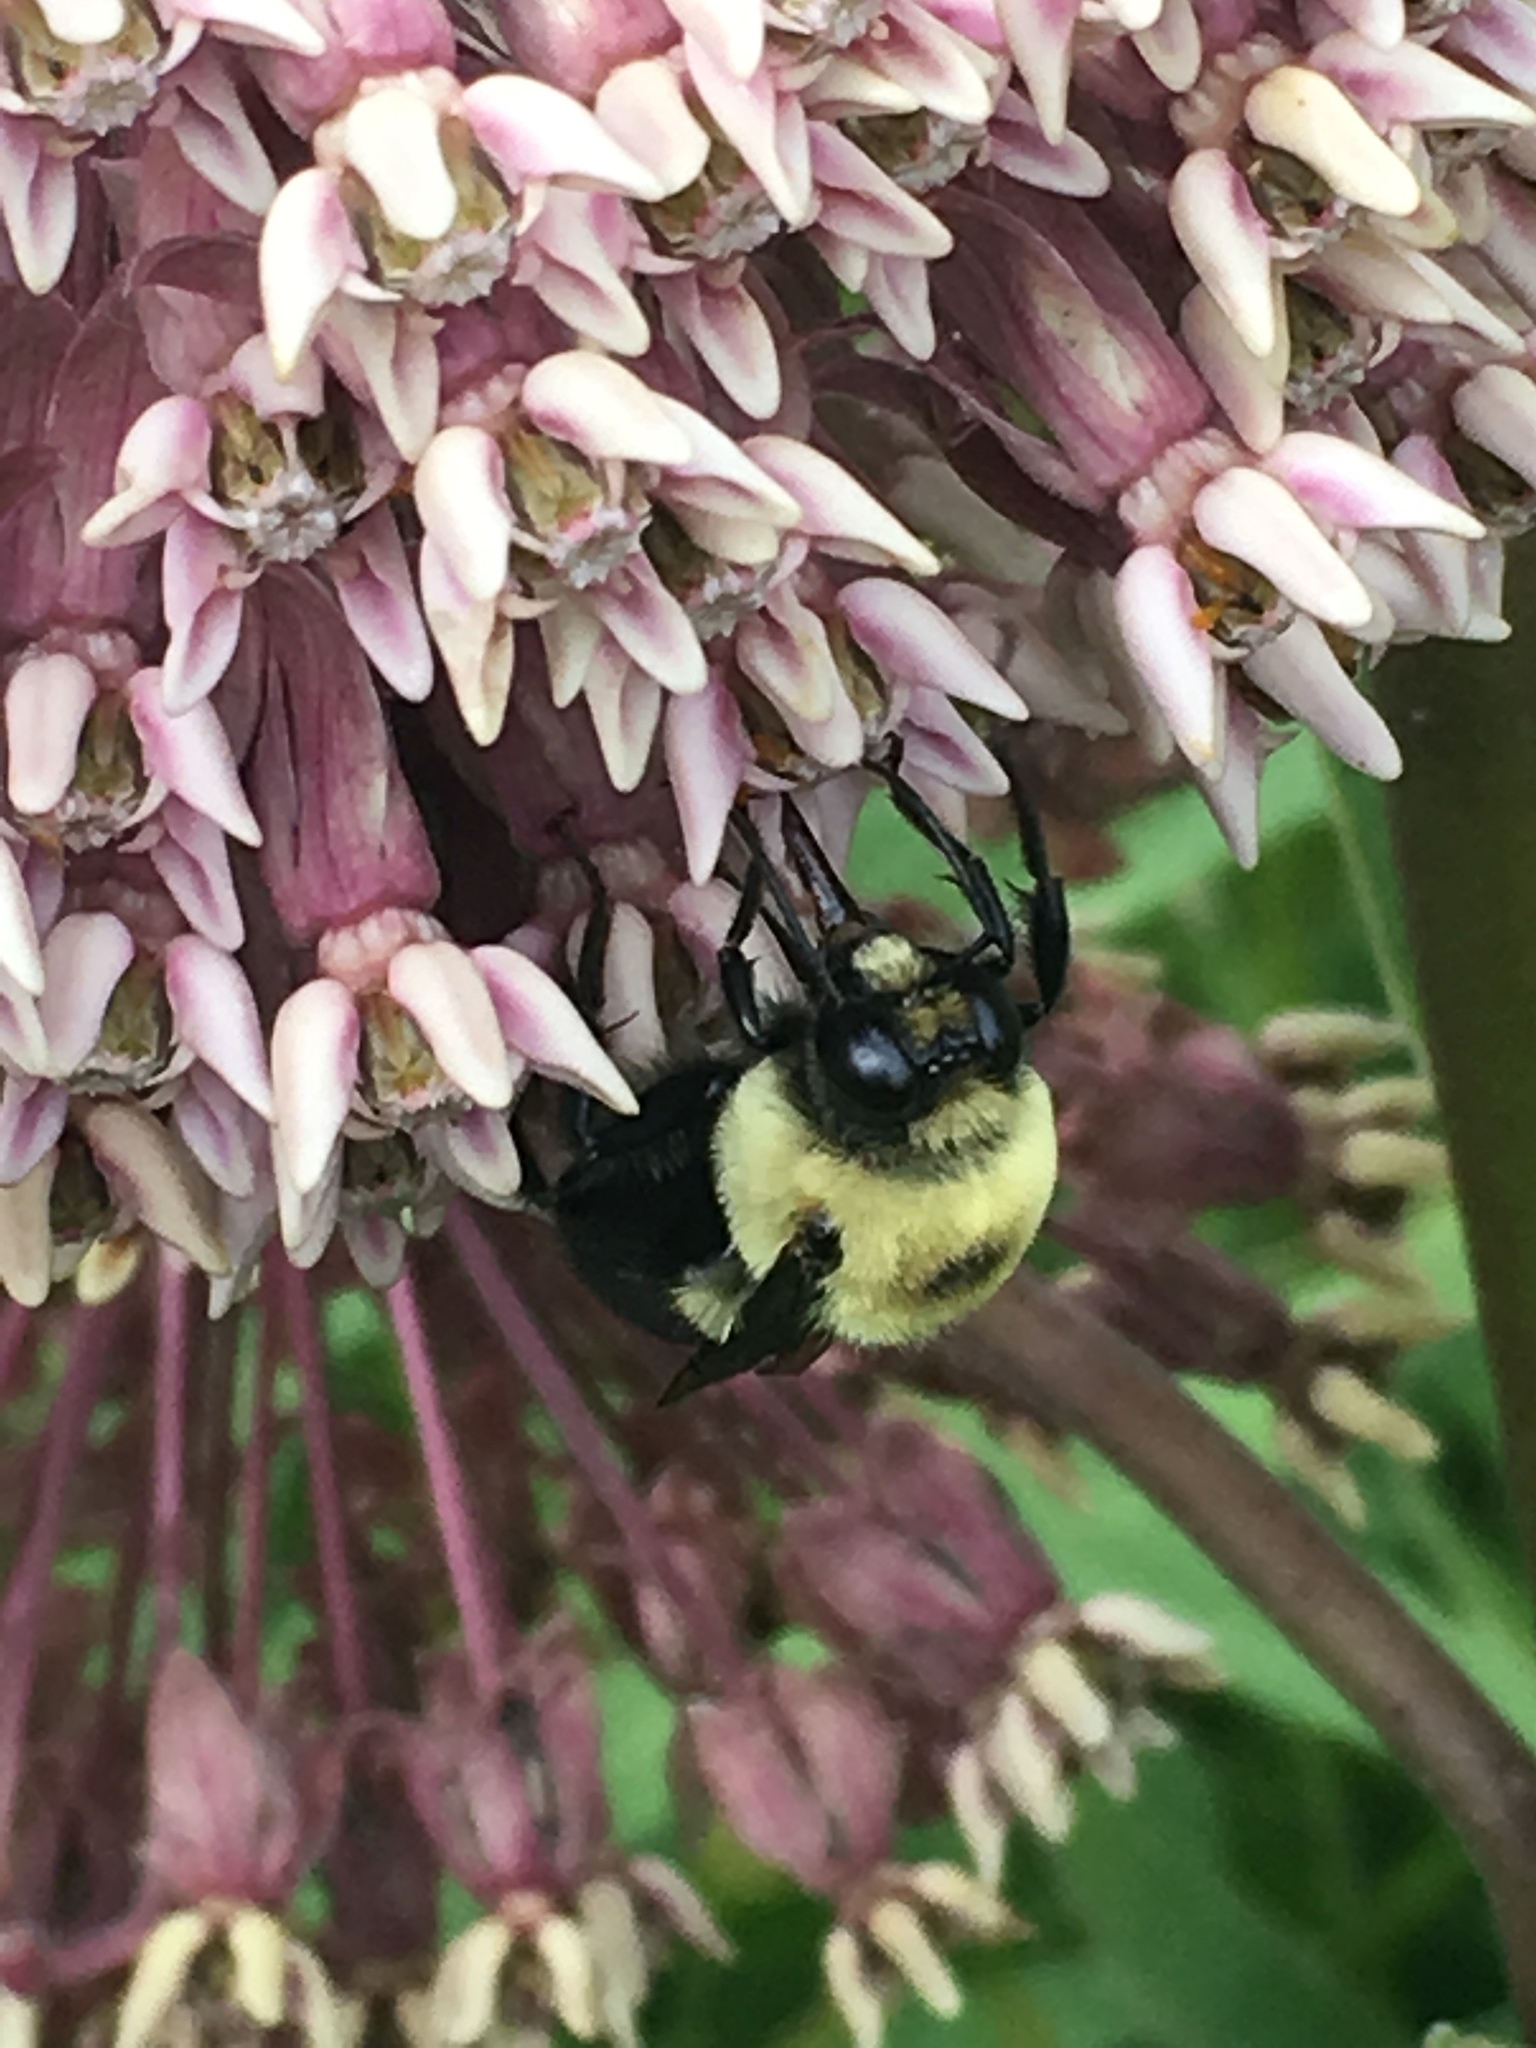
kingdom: Animalia
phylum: Arthropoda
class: Insecta
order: Hymenoptera
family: Apidae
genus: Bombus
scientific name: Bombus griseocollis
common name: Brown-belted bumble bee
